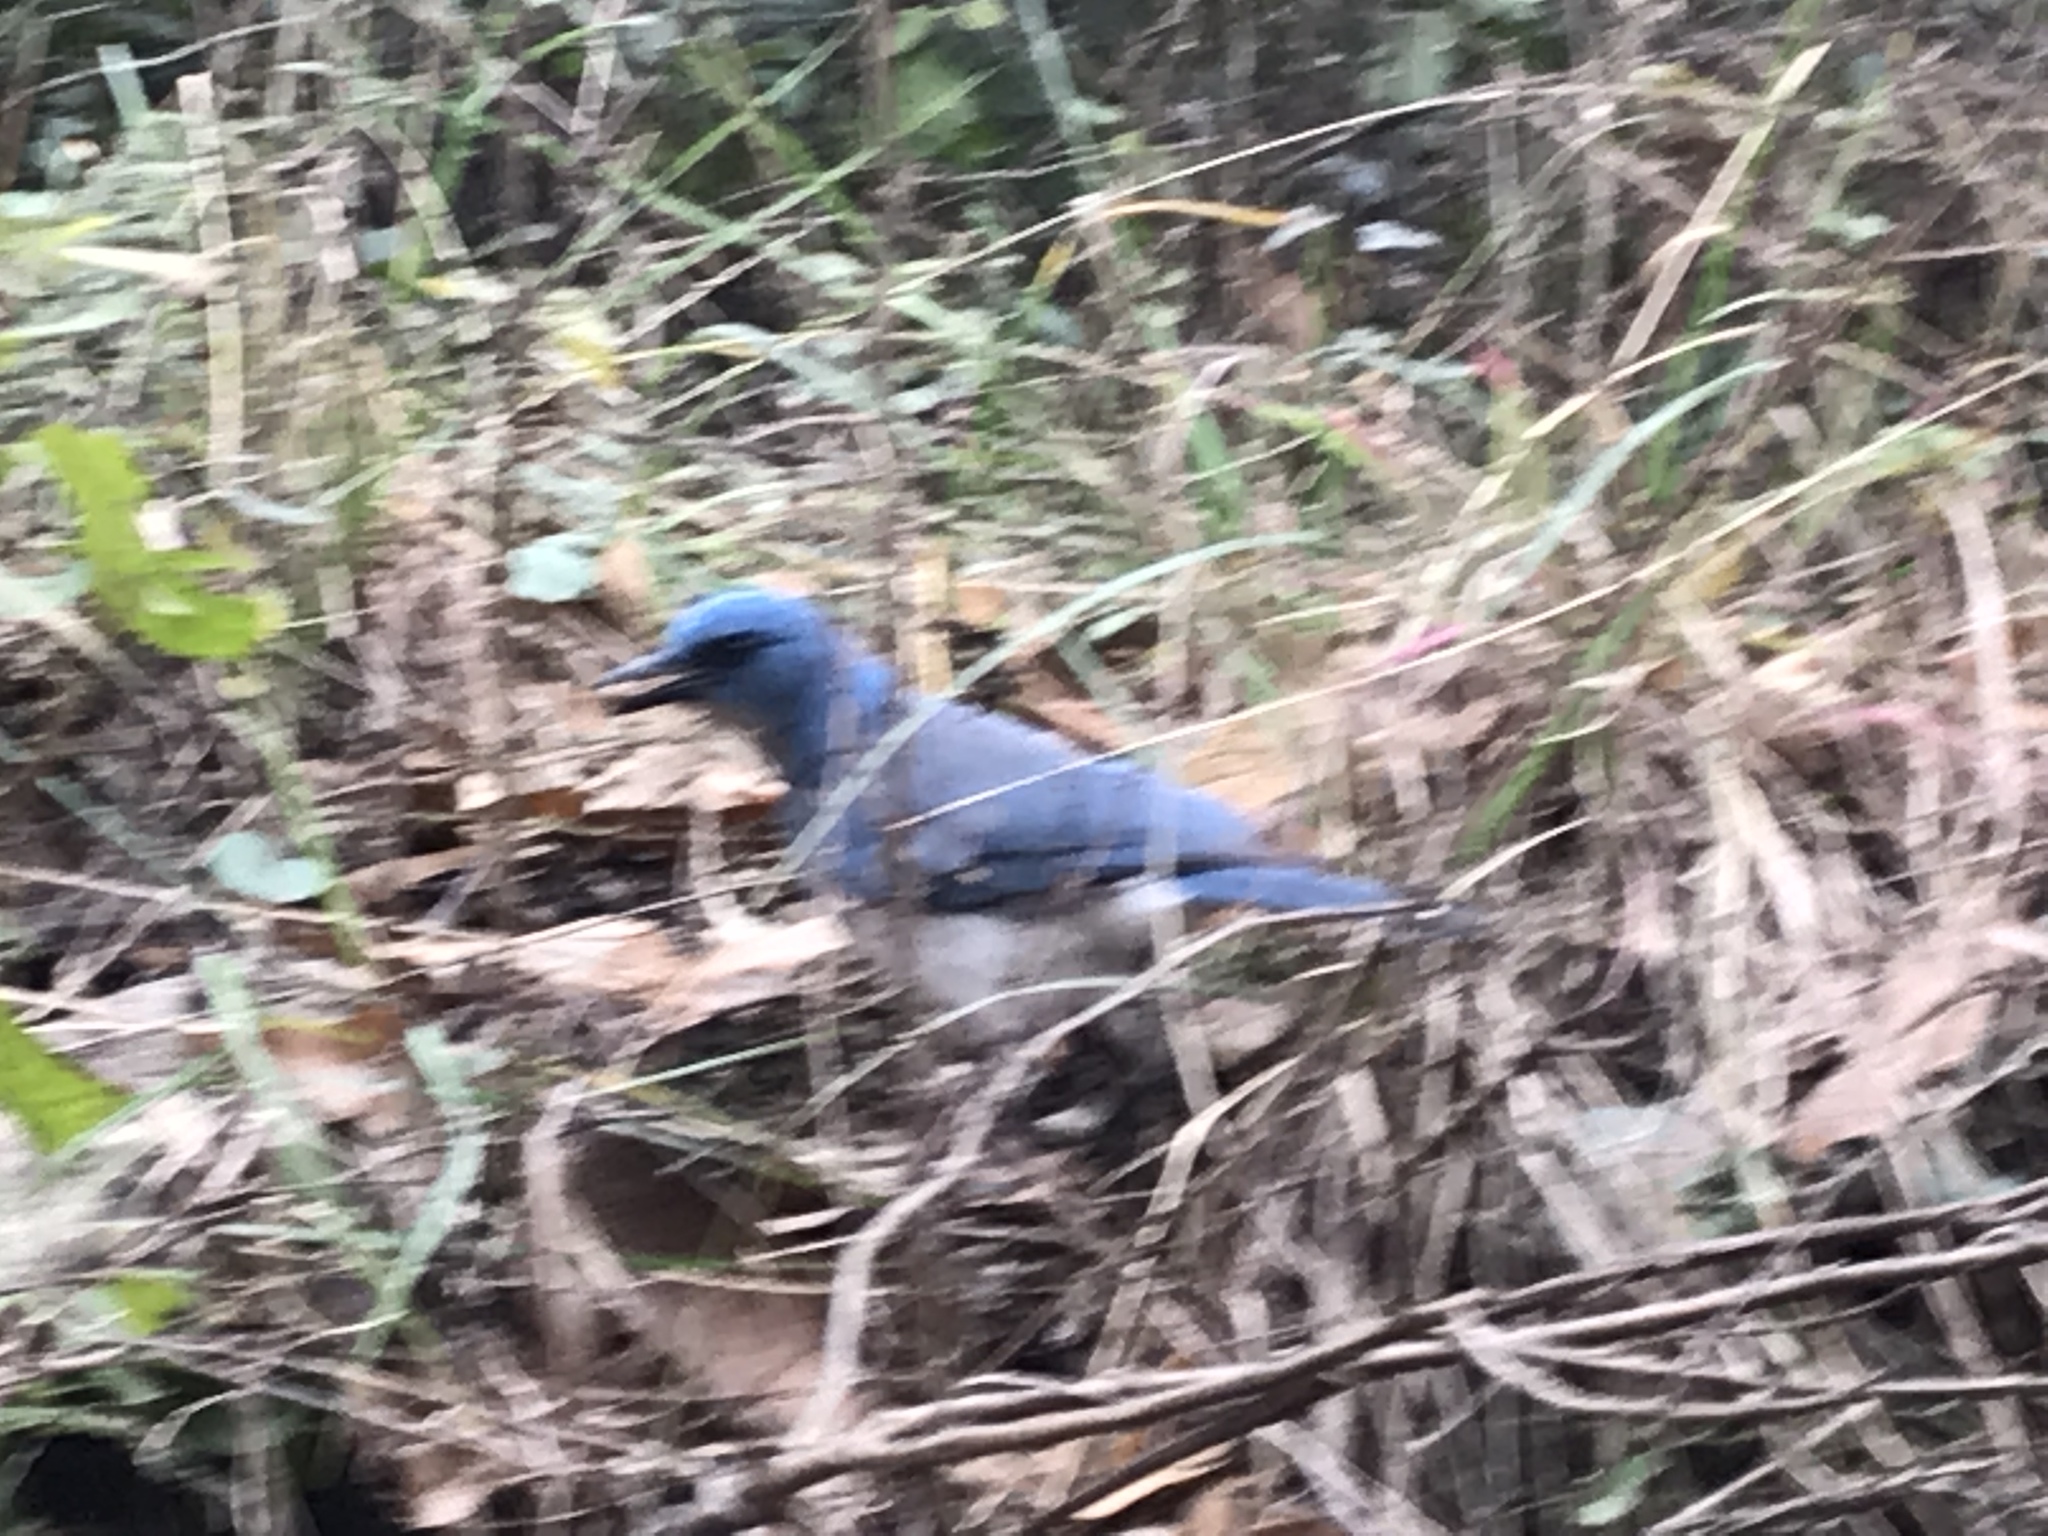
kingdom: Animalia
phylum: Chordata
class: Aves
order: Passeriformes
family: Corvidae
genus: Aphelocoma
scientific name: Aphelocoma wollweberi
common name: Mexican jay
